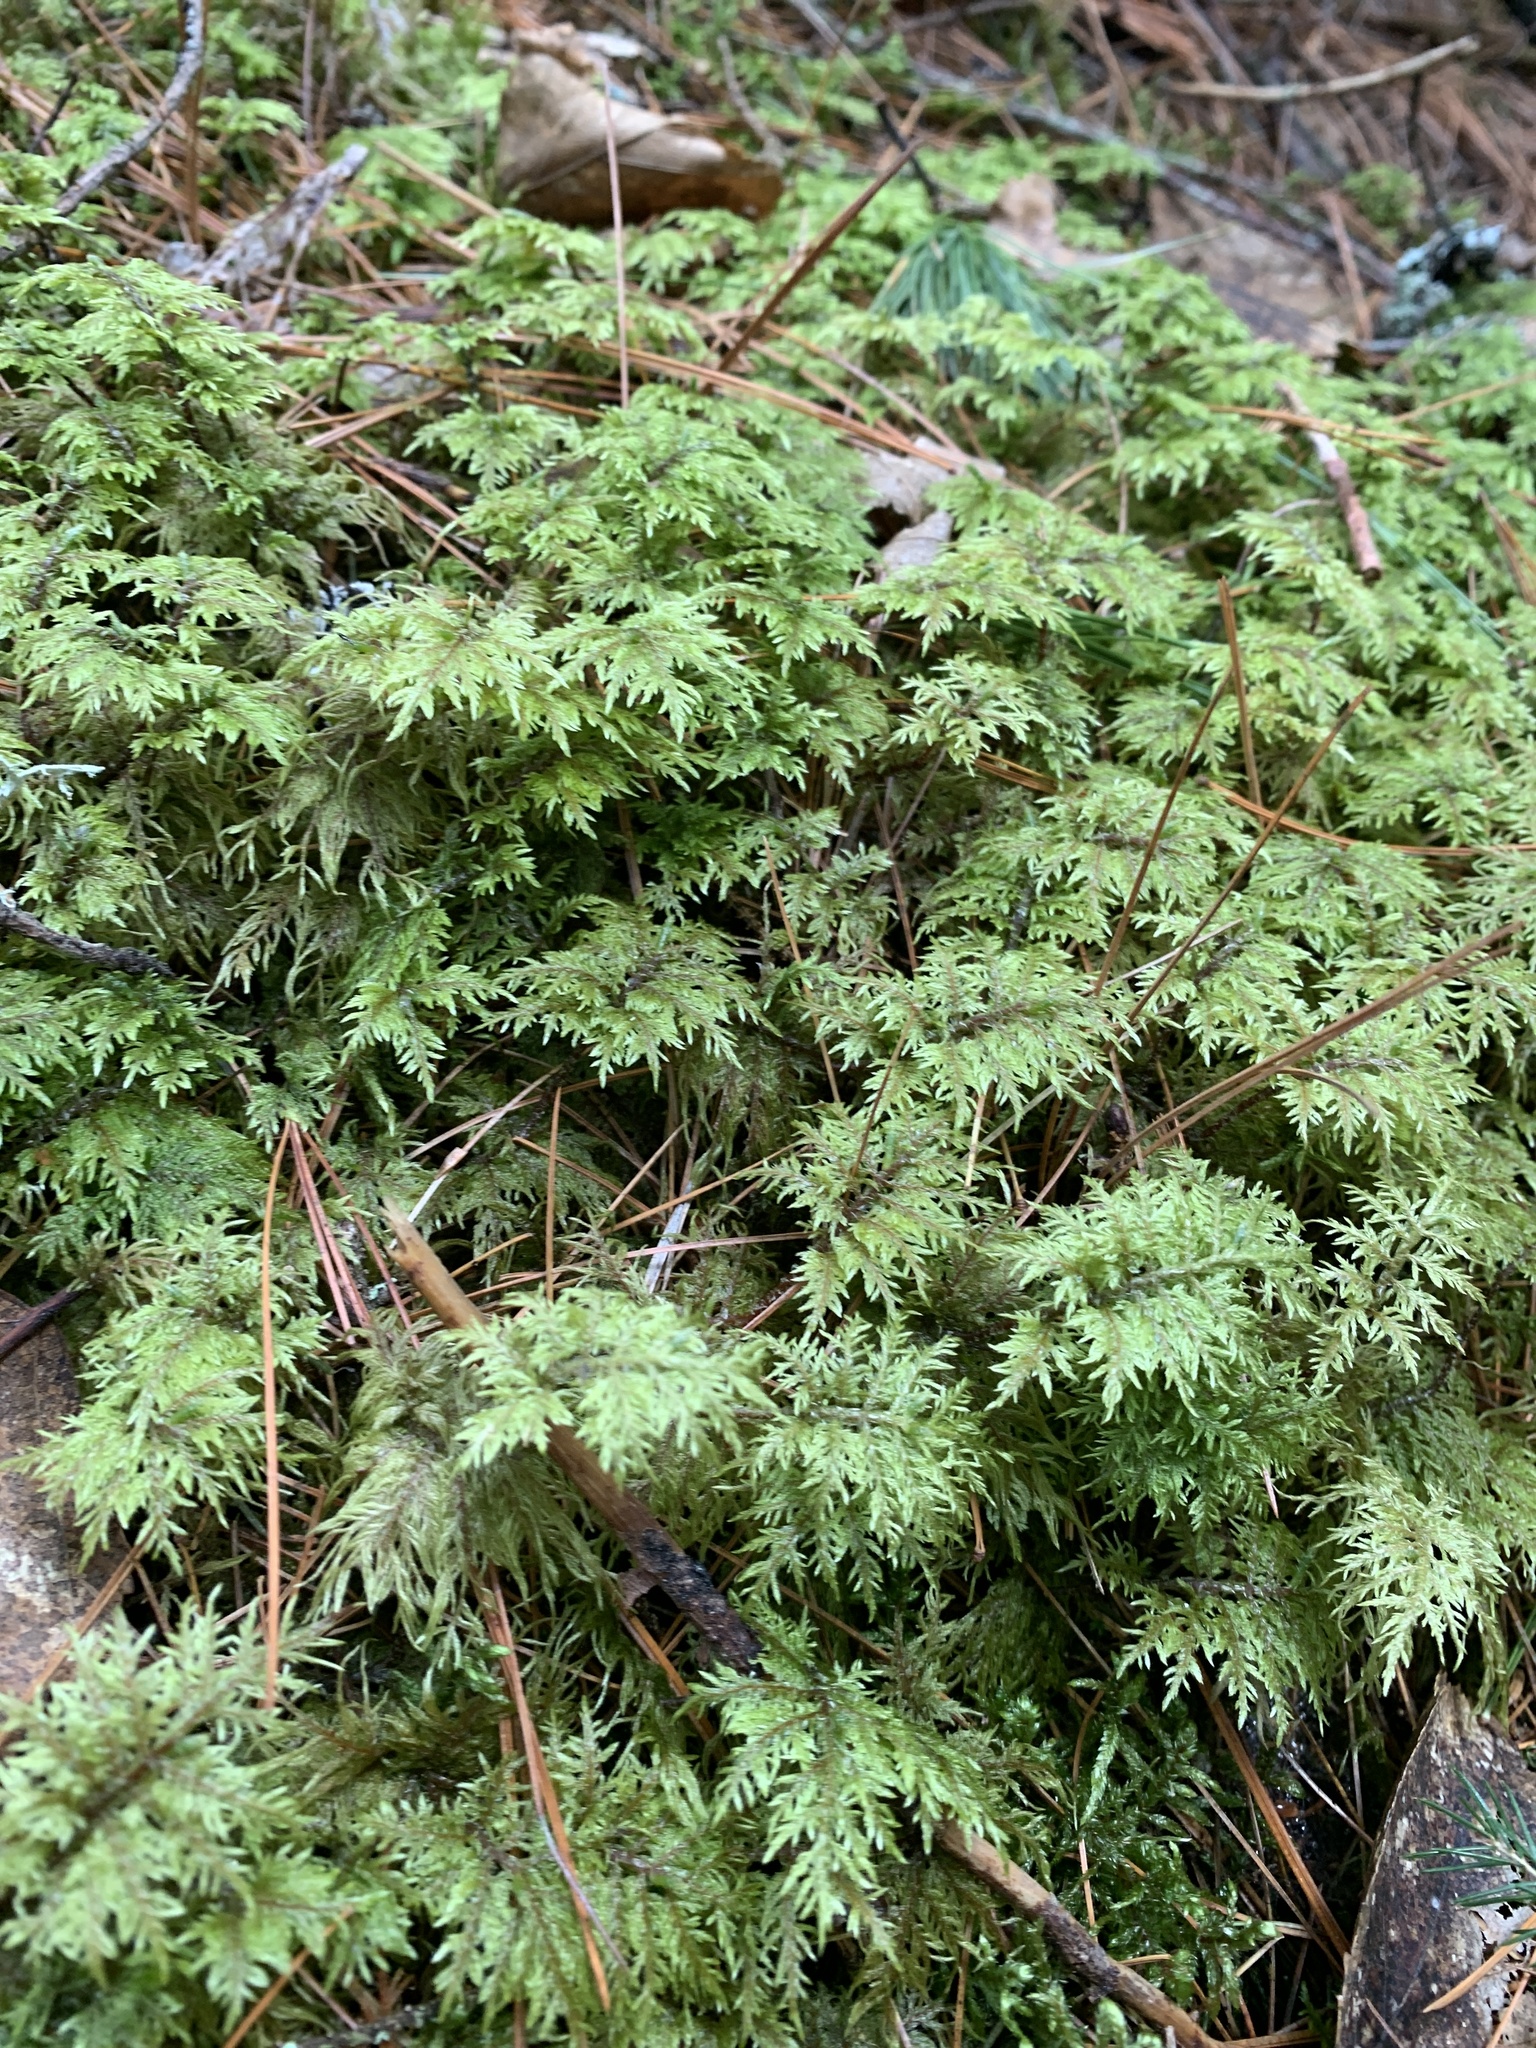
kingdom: Plantae
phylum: Bryophyta
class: Bryopsida
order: Hypnales
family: Hylocomiaceae
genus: Hylocomium
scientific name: Hylocomium splendens
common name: Stairstep moss
